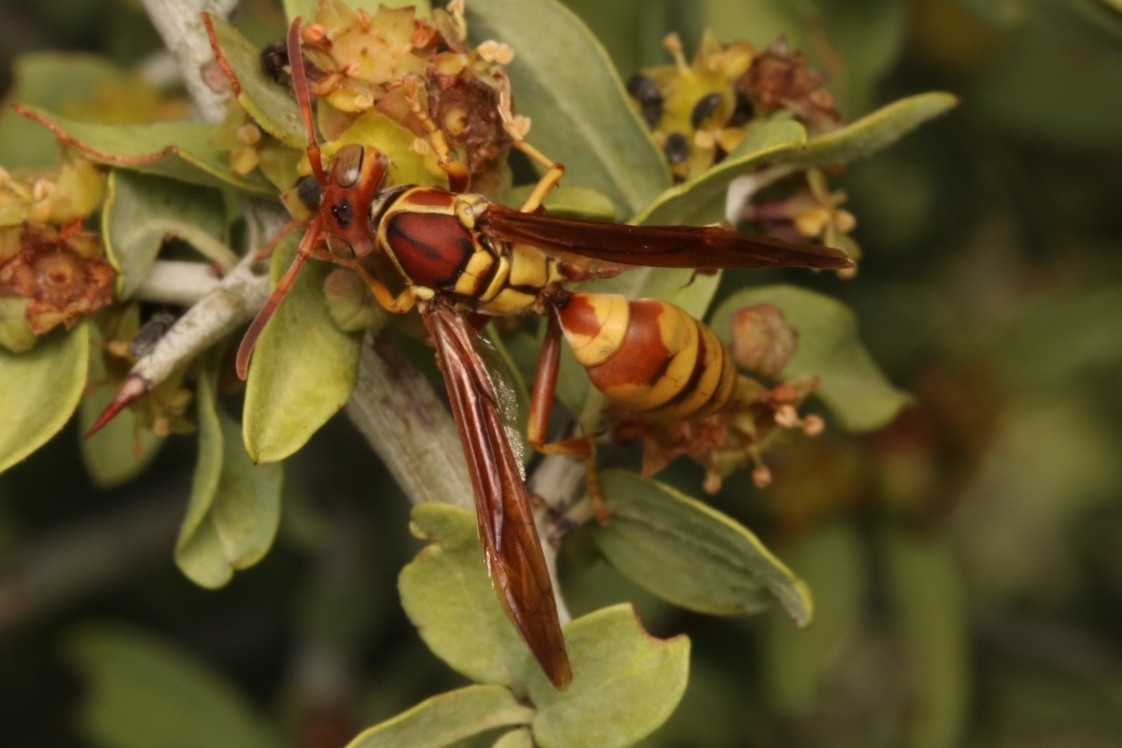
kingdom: Animalia
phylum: Arthropoda
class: Insecta
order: Hymenoptera
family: Eumenidae
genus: Polistes
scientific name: Polistes dorsalis
